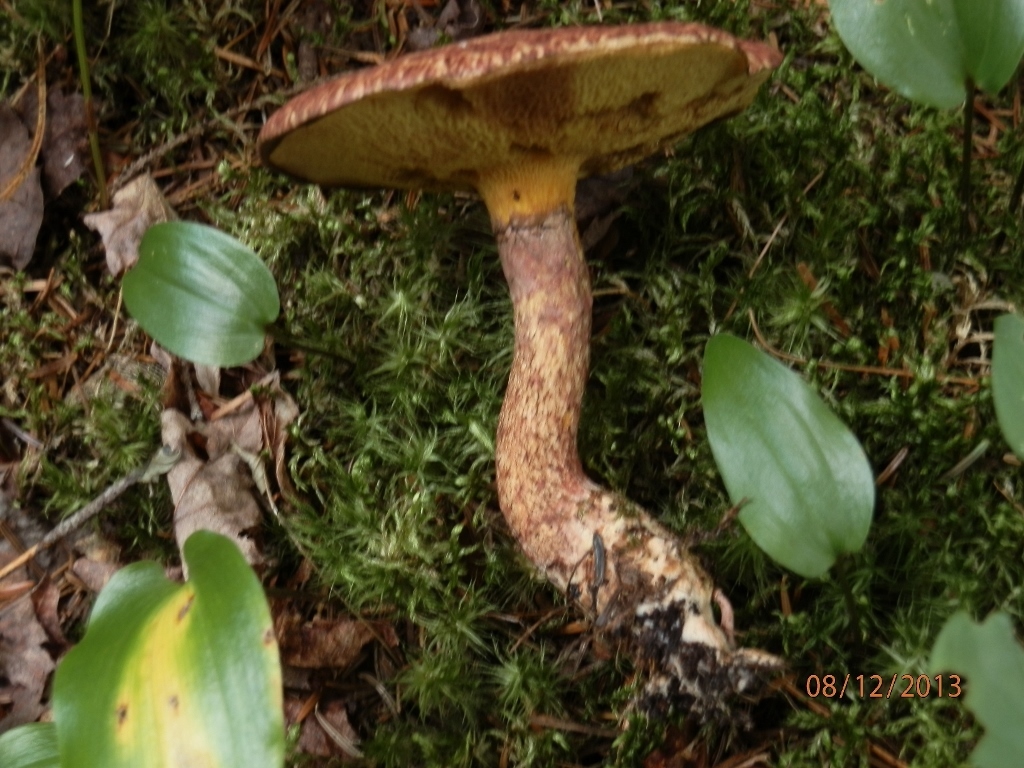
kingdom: Fungi
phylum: Basidiomycota
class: Agaricomycetes
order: Boletales
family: Suillaceae
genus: Suillus
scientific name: Suillus spraguei
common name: Painted suillus
